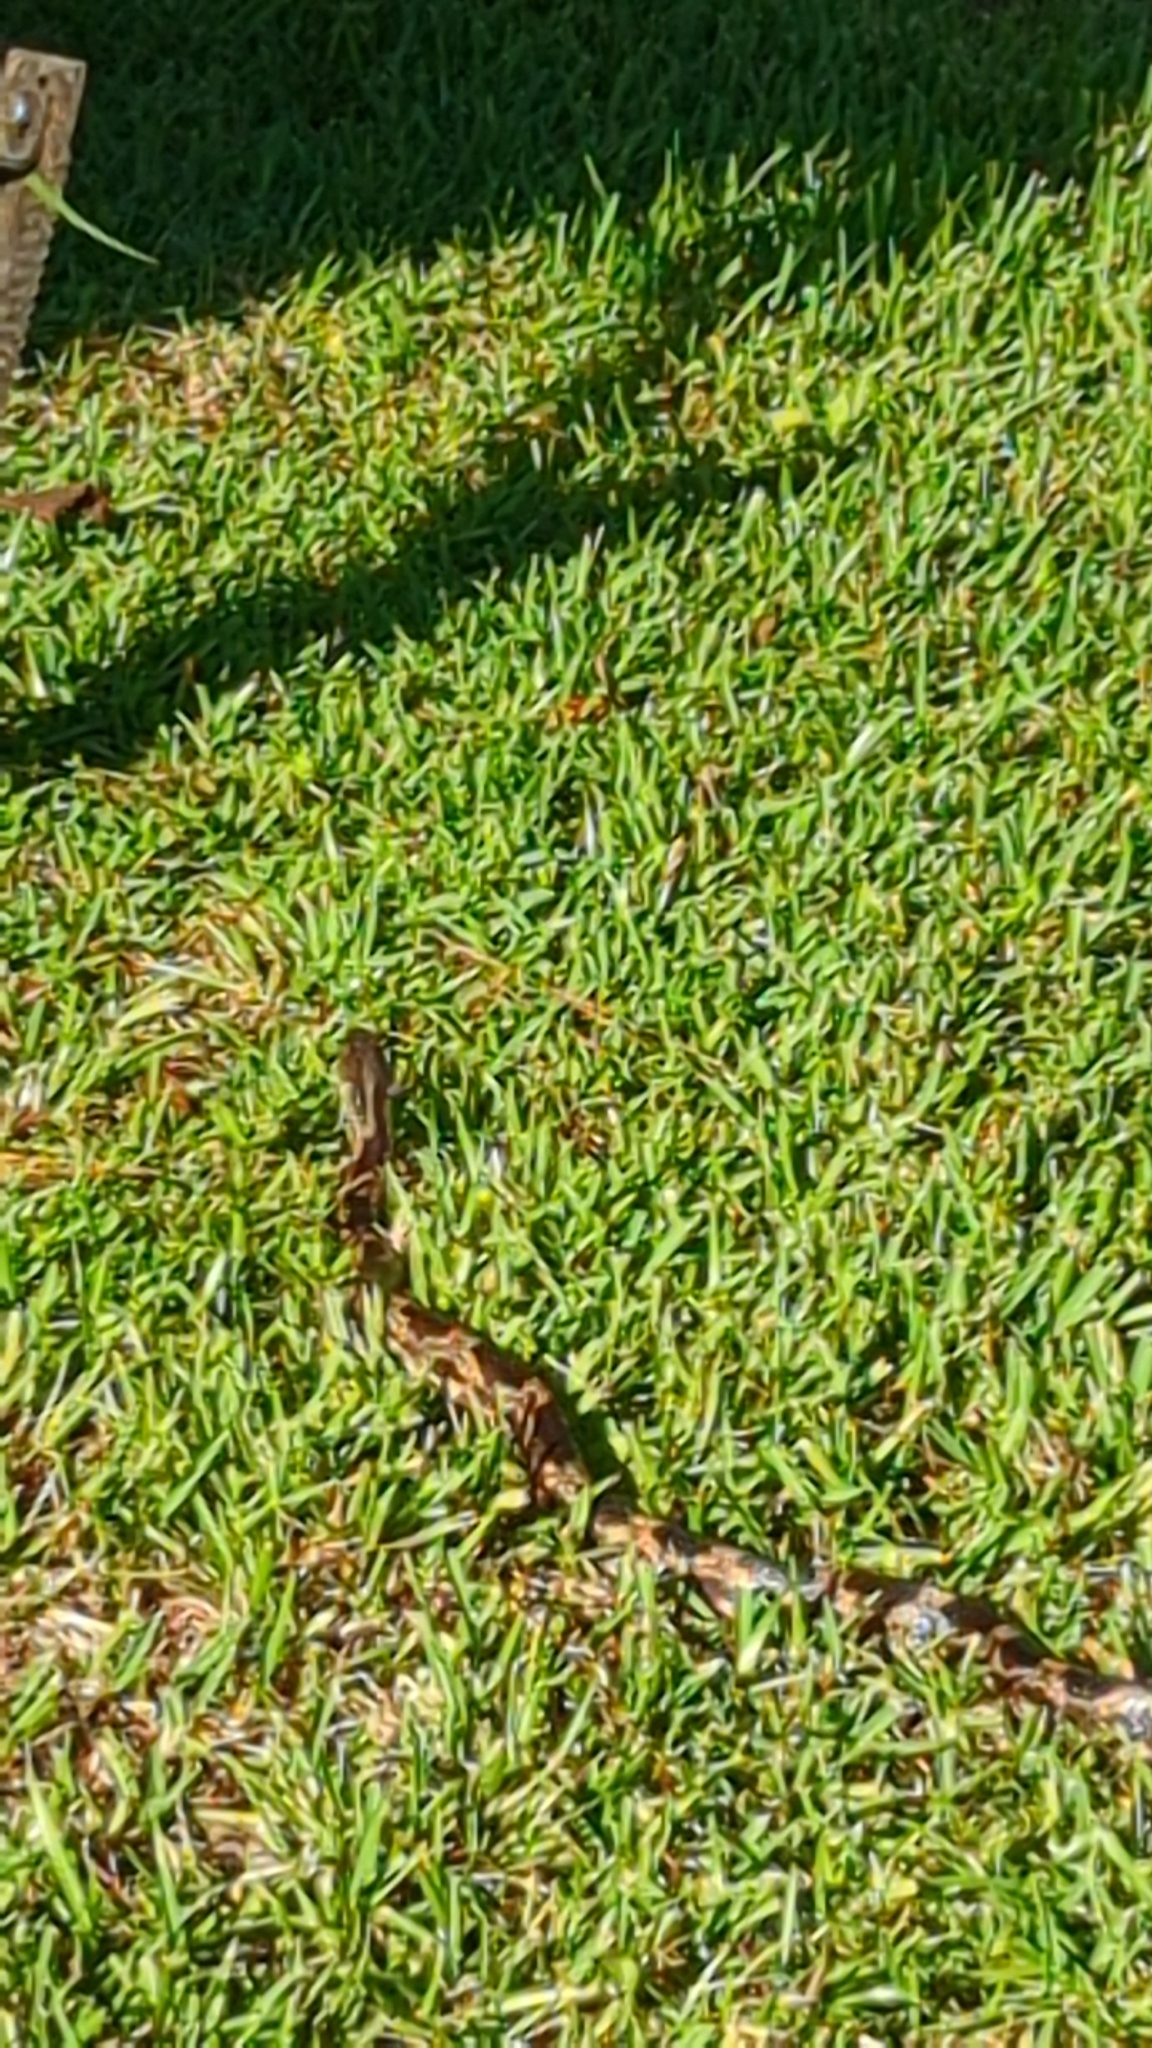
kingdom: Animalia
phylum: Chordata
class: Squamata
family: Colubridae
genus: Pantherophis
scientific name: Pantherophis spiloides
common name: Gray rat snake
